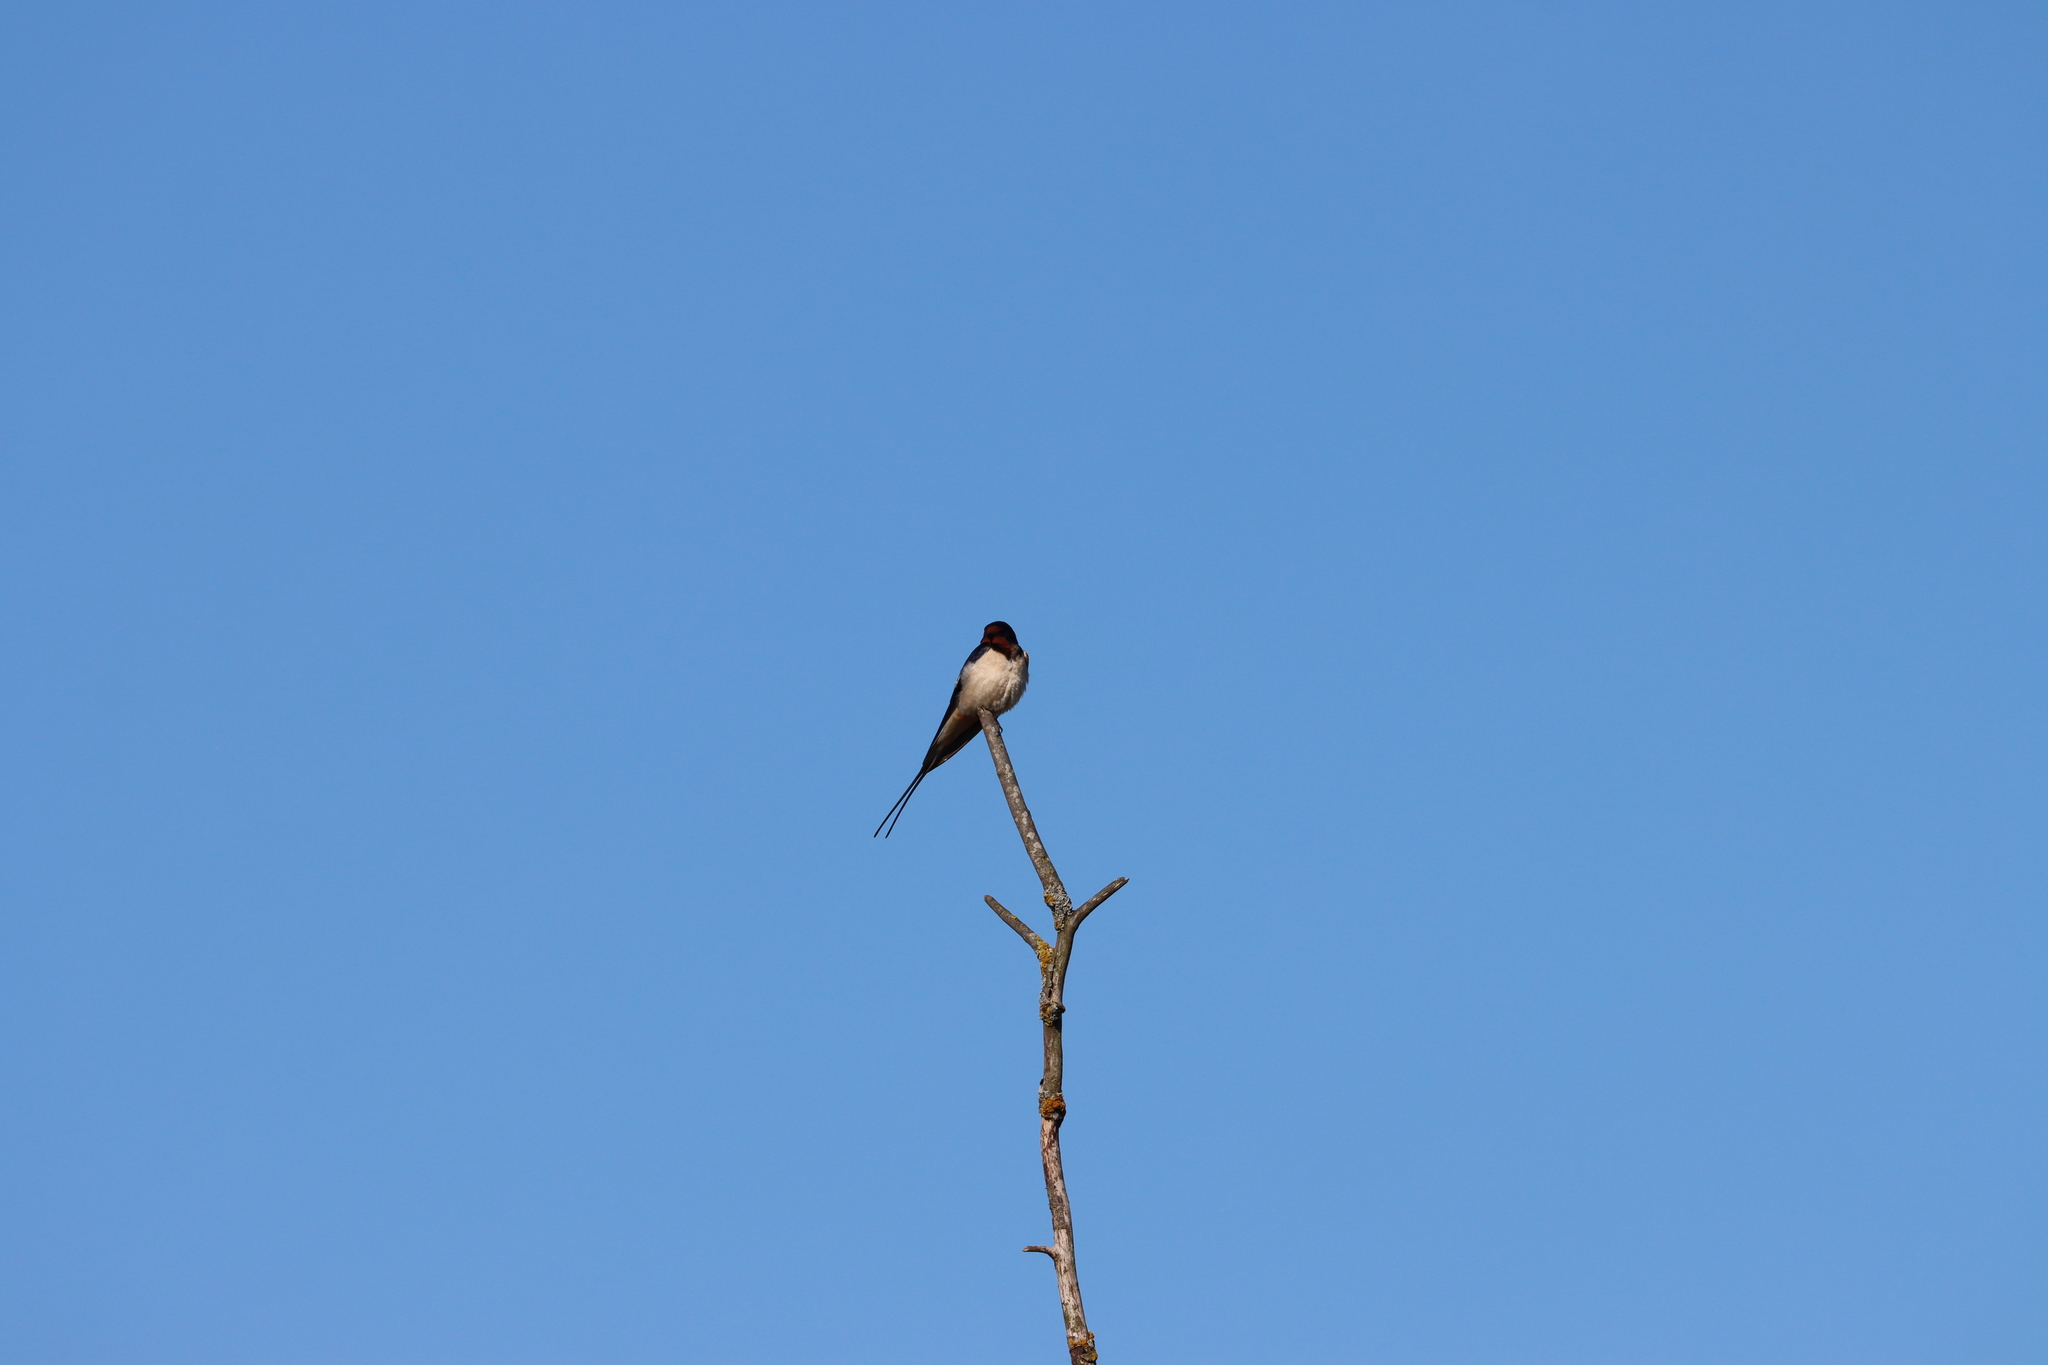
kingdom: Animalia
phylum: Chordata
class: Aves
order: Passeriformes
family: Hirundinidae
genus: Hirundo
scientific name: Hirundo rustica
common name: Barn swallow
